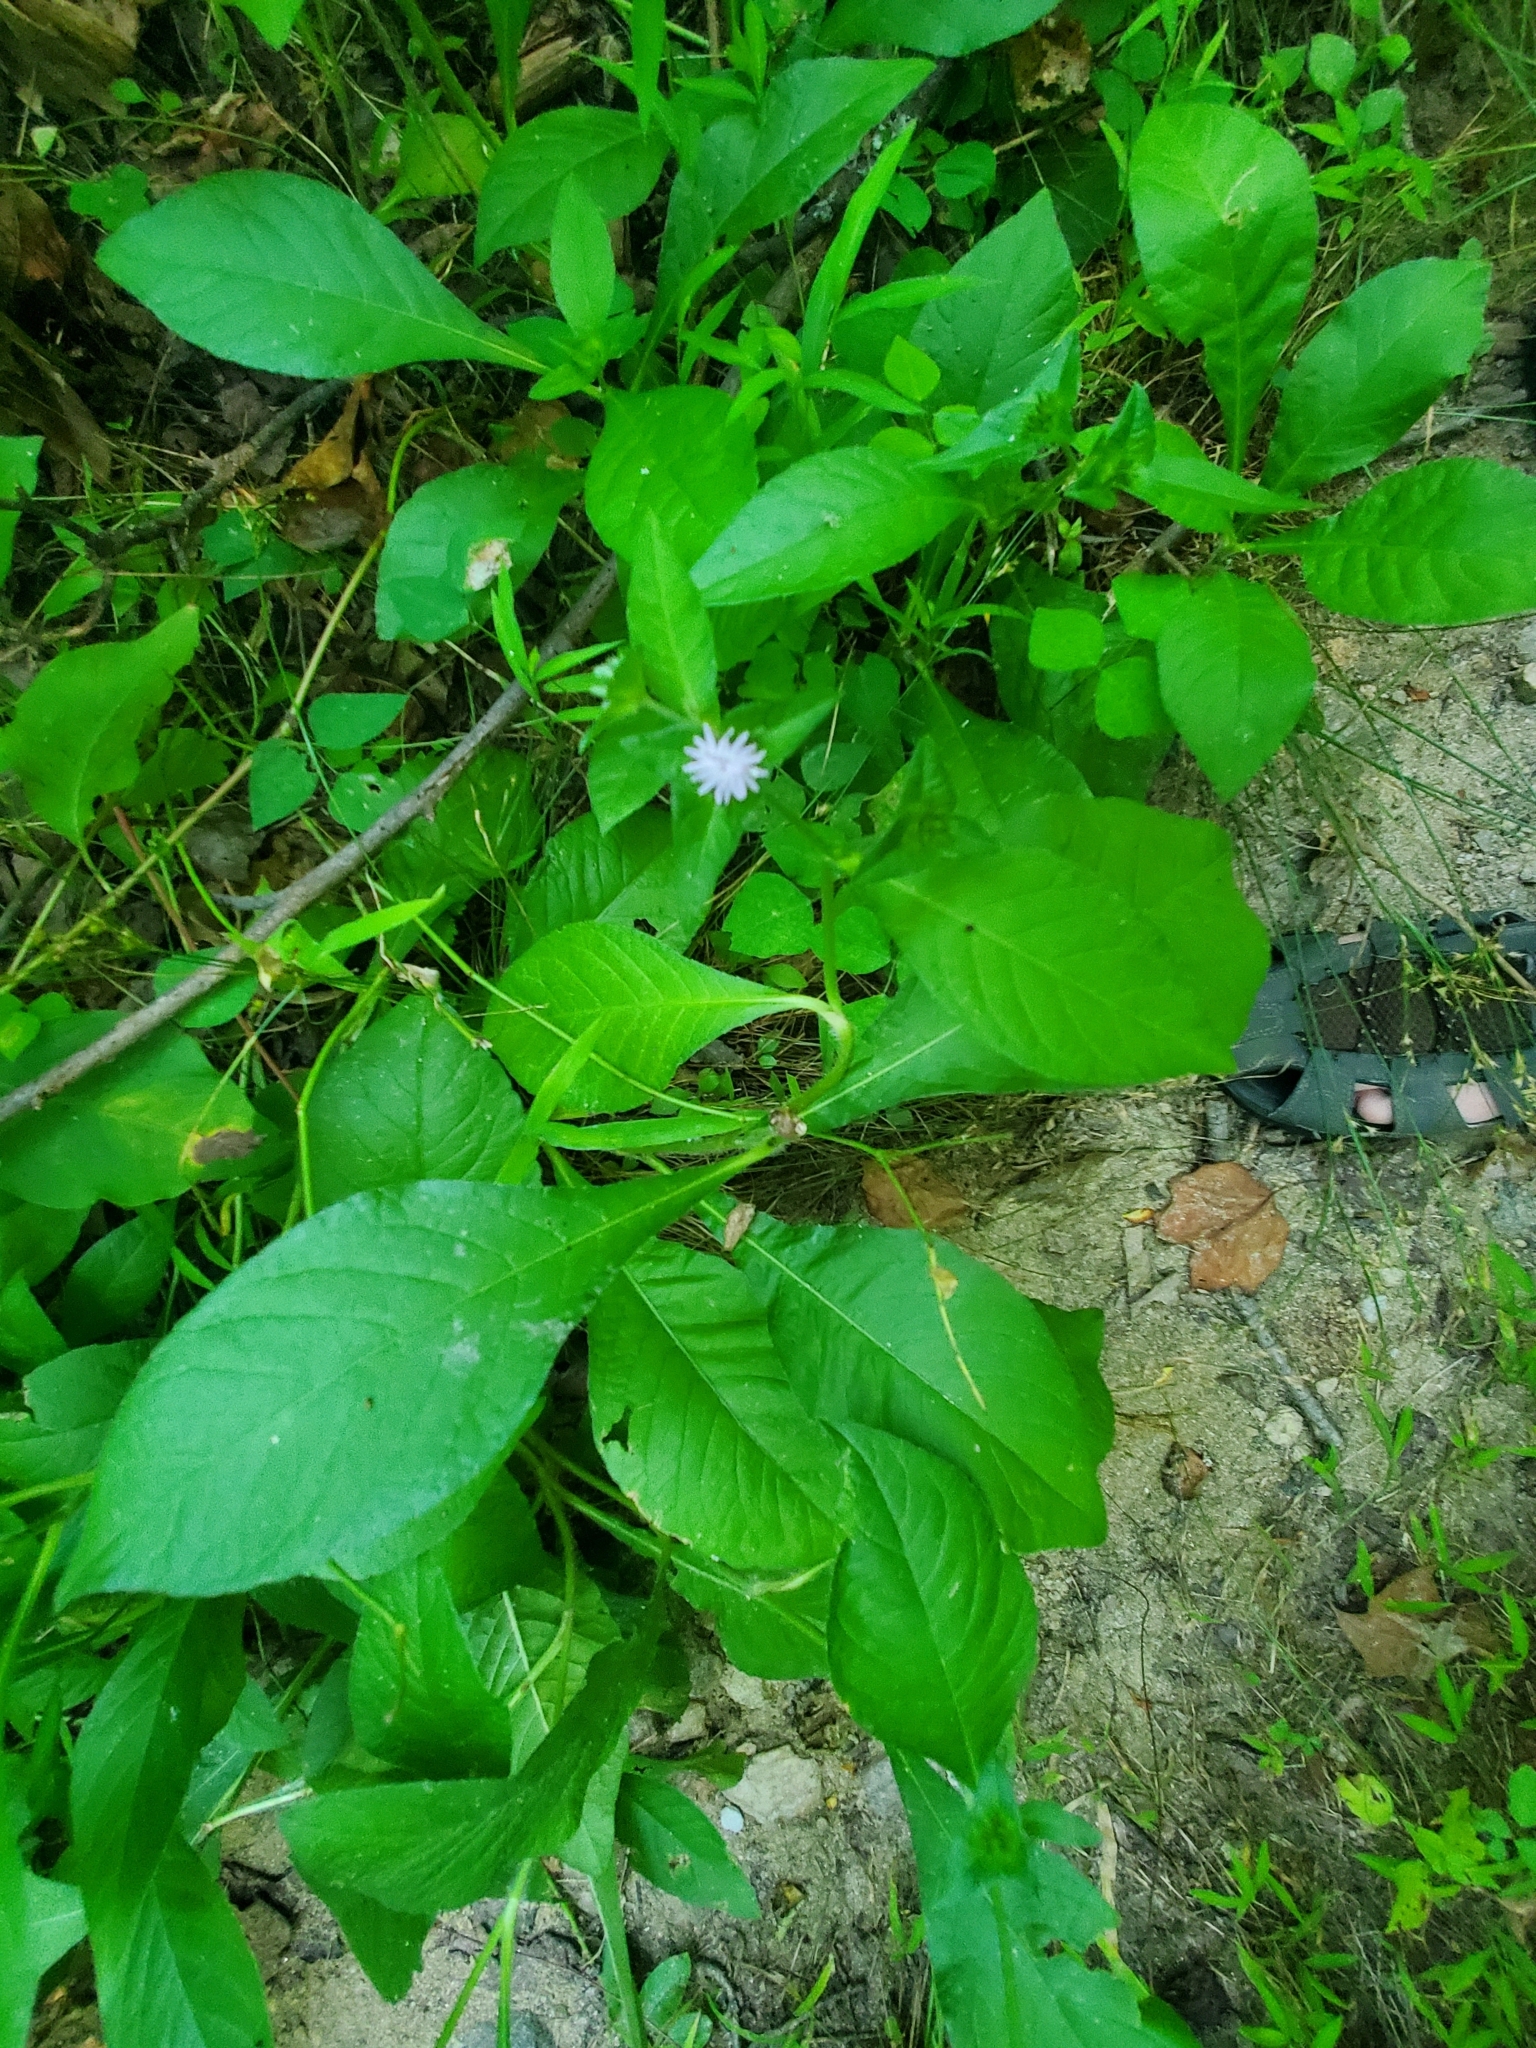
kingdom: Plantae
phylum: Tracheophyta
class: Magnoliopsida
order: Asterales
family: Asteraceae
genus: Elephantopus
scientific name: Elephantopus carolinianus
